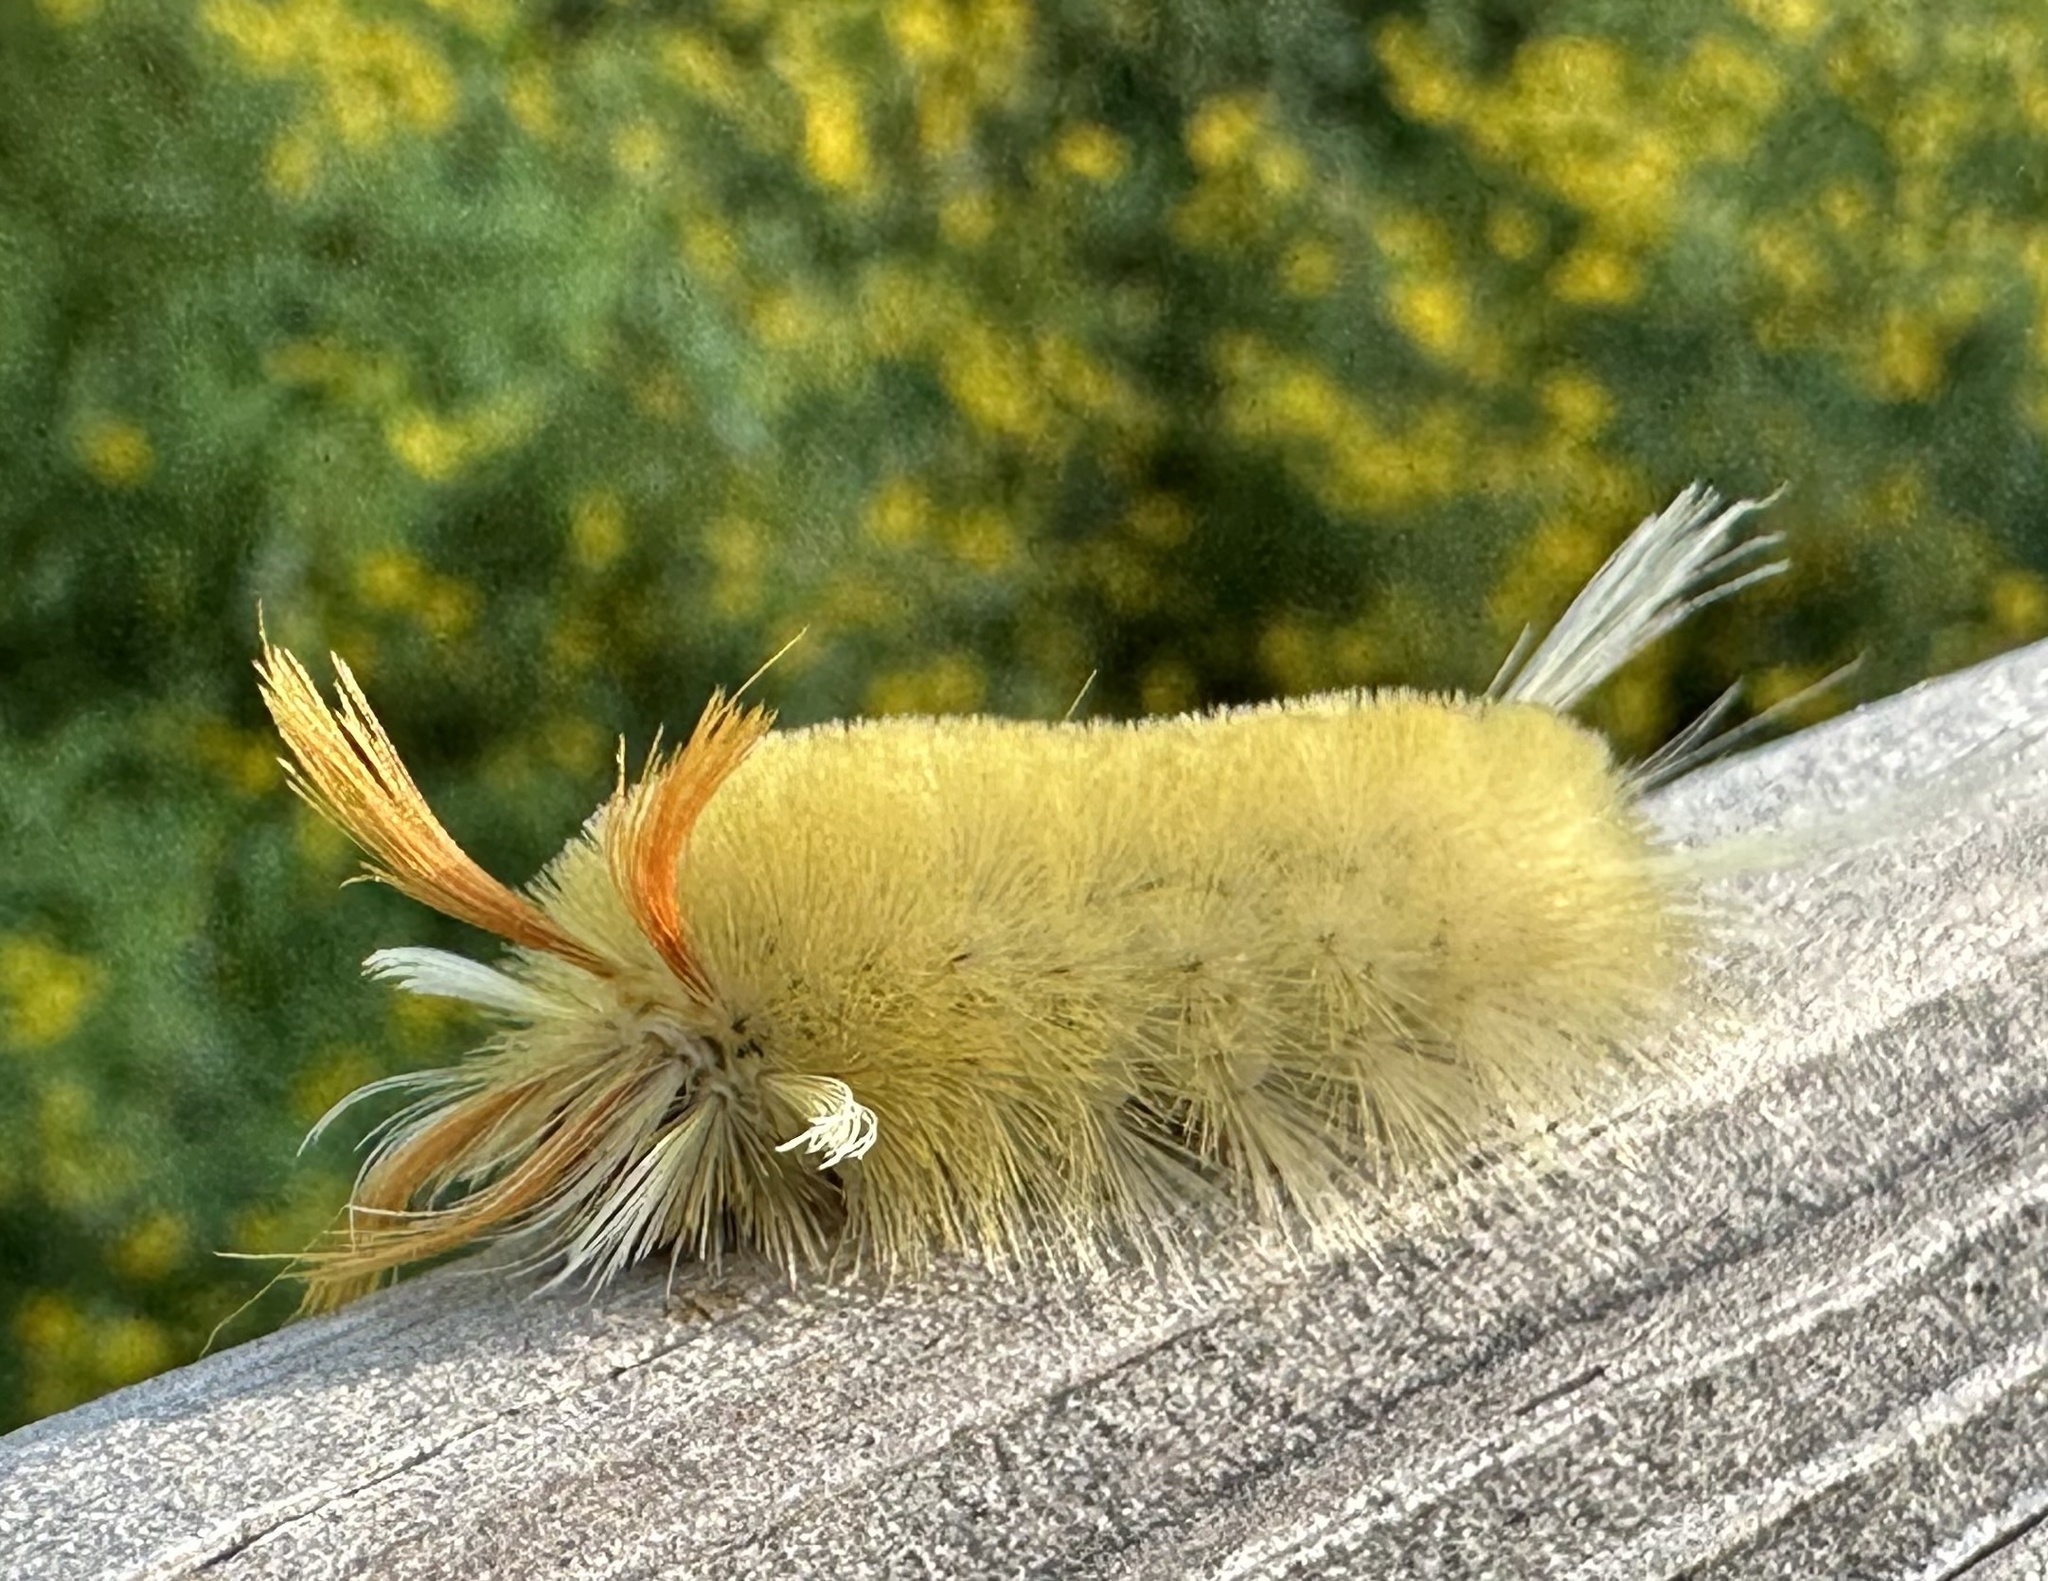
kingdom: Animalia
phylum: Arthropoda
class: Insecta
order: Lepidoptera
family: Erebidae
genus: Halysidota
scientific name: Halysidota harrisii
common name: Sycamore tussock moth
